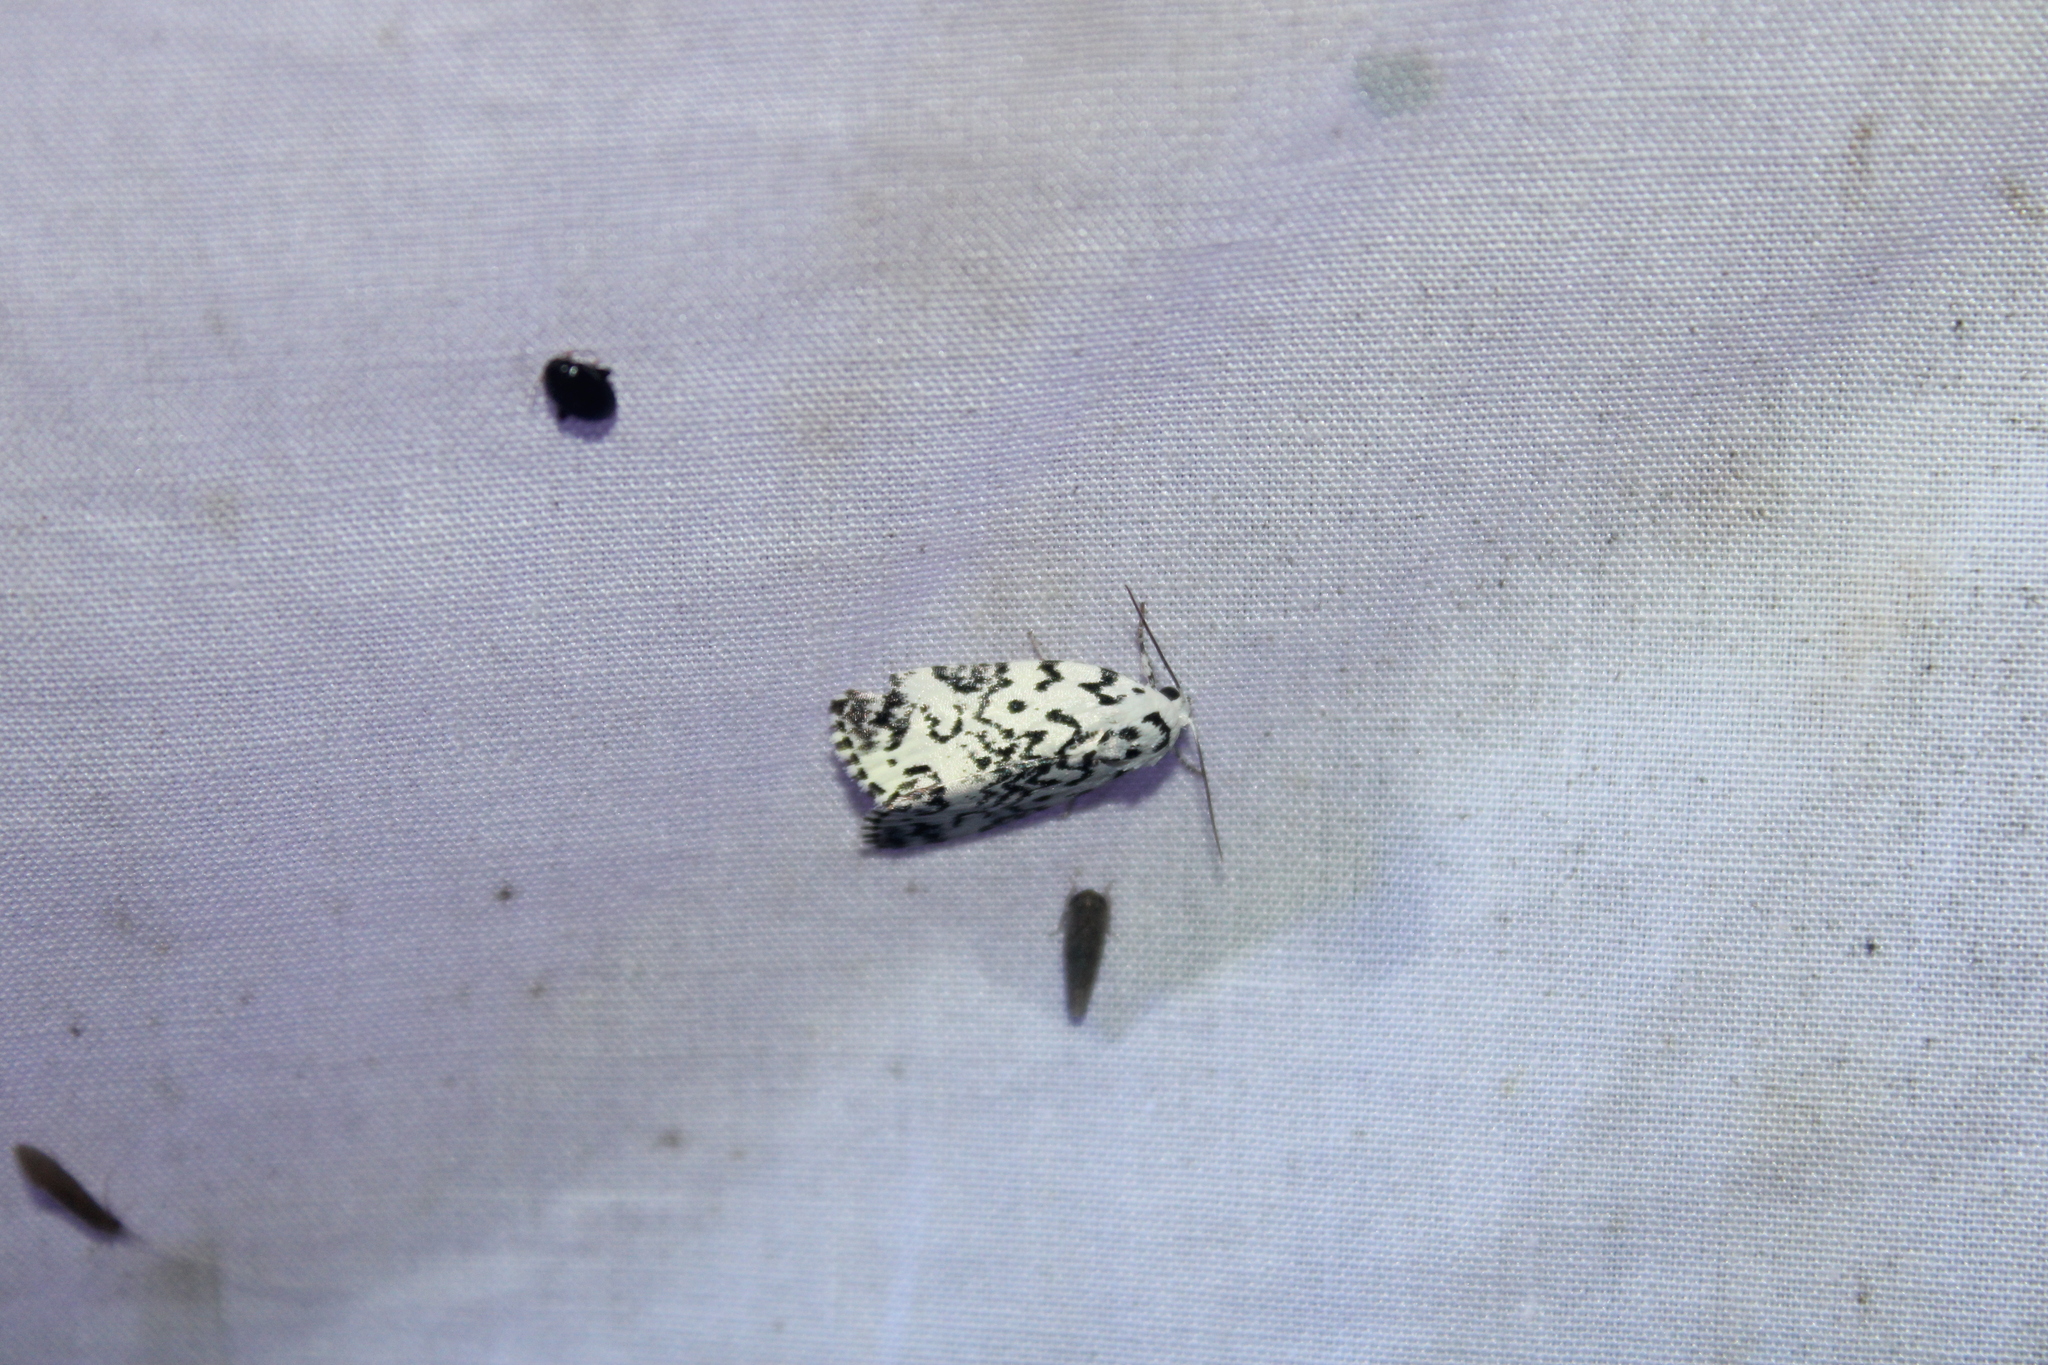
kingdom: Animalia
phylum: Arthropoda
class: Insecta
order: Lepidoptera
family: Noctuidae
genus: Polygrammate
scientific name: Polygrammate hebraeicum
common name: Hebrew moth
